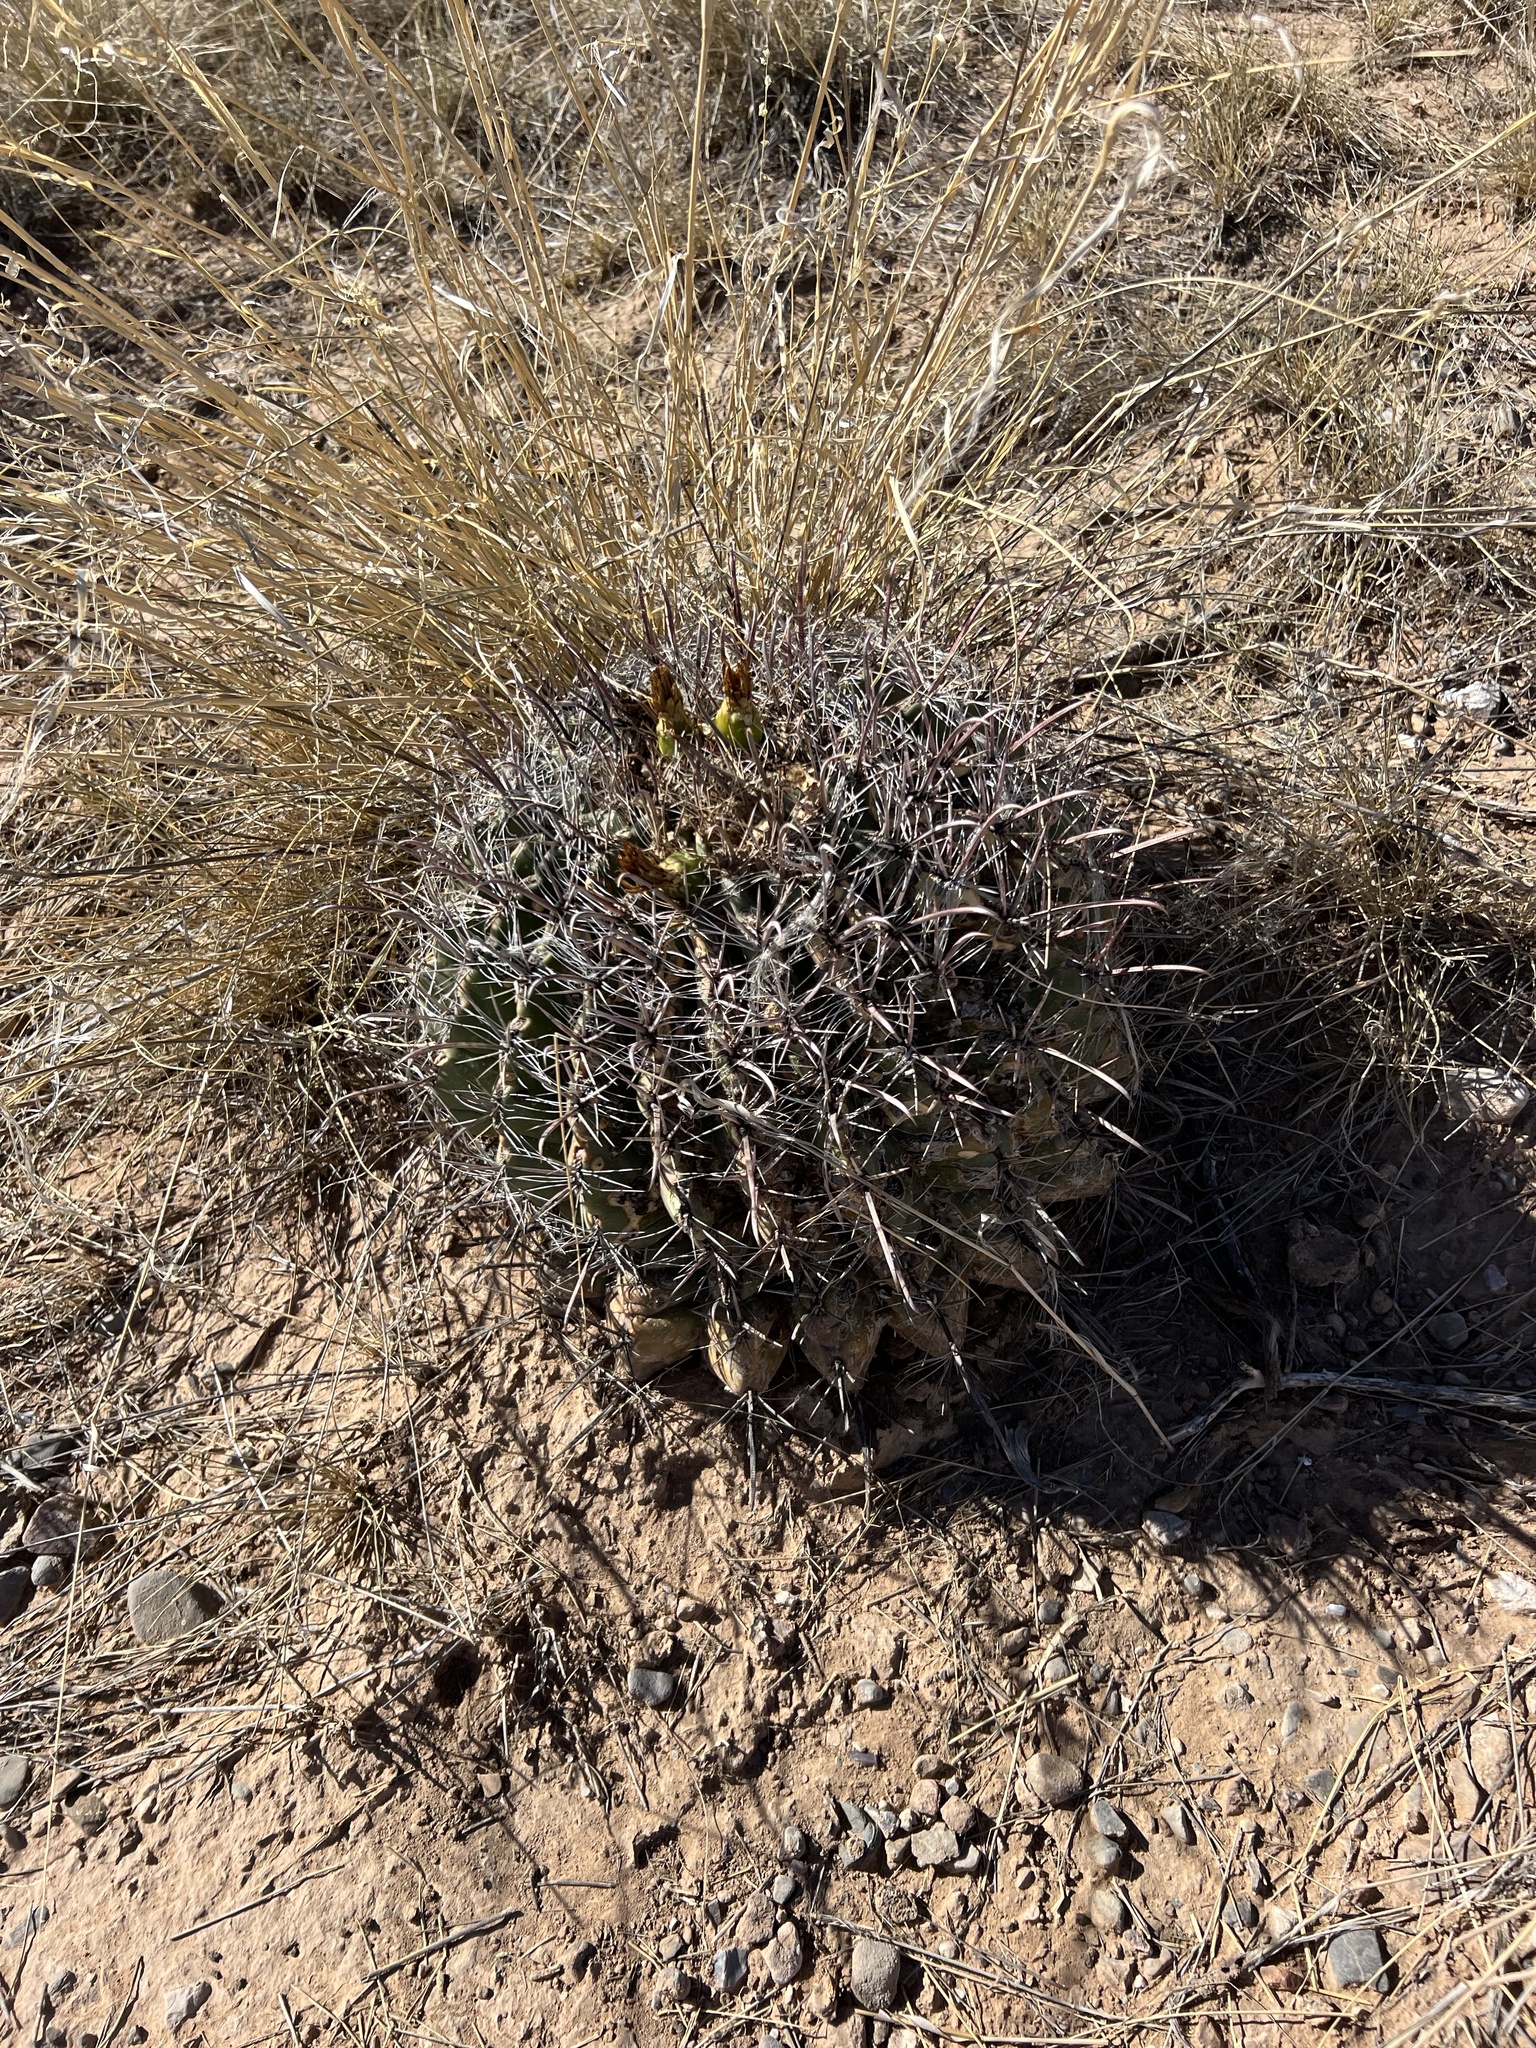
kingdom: Plantae
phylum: Tracheophyta
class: Magnoliopsida
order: Caryophyllales
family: Cactaceae
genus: Ferocactus
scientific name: Ferocactus wislizeni
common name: Candy barrel cactus
